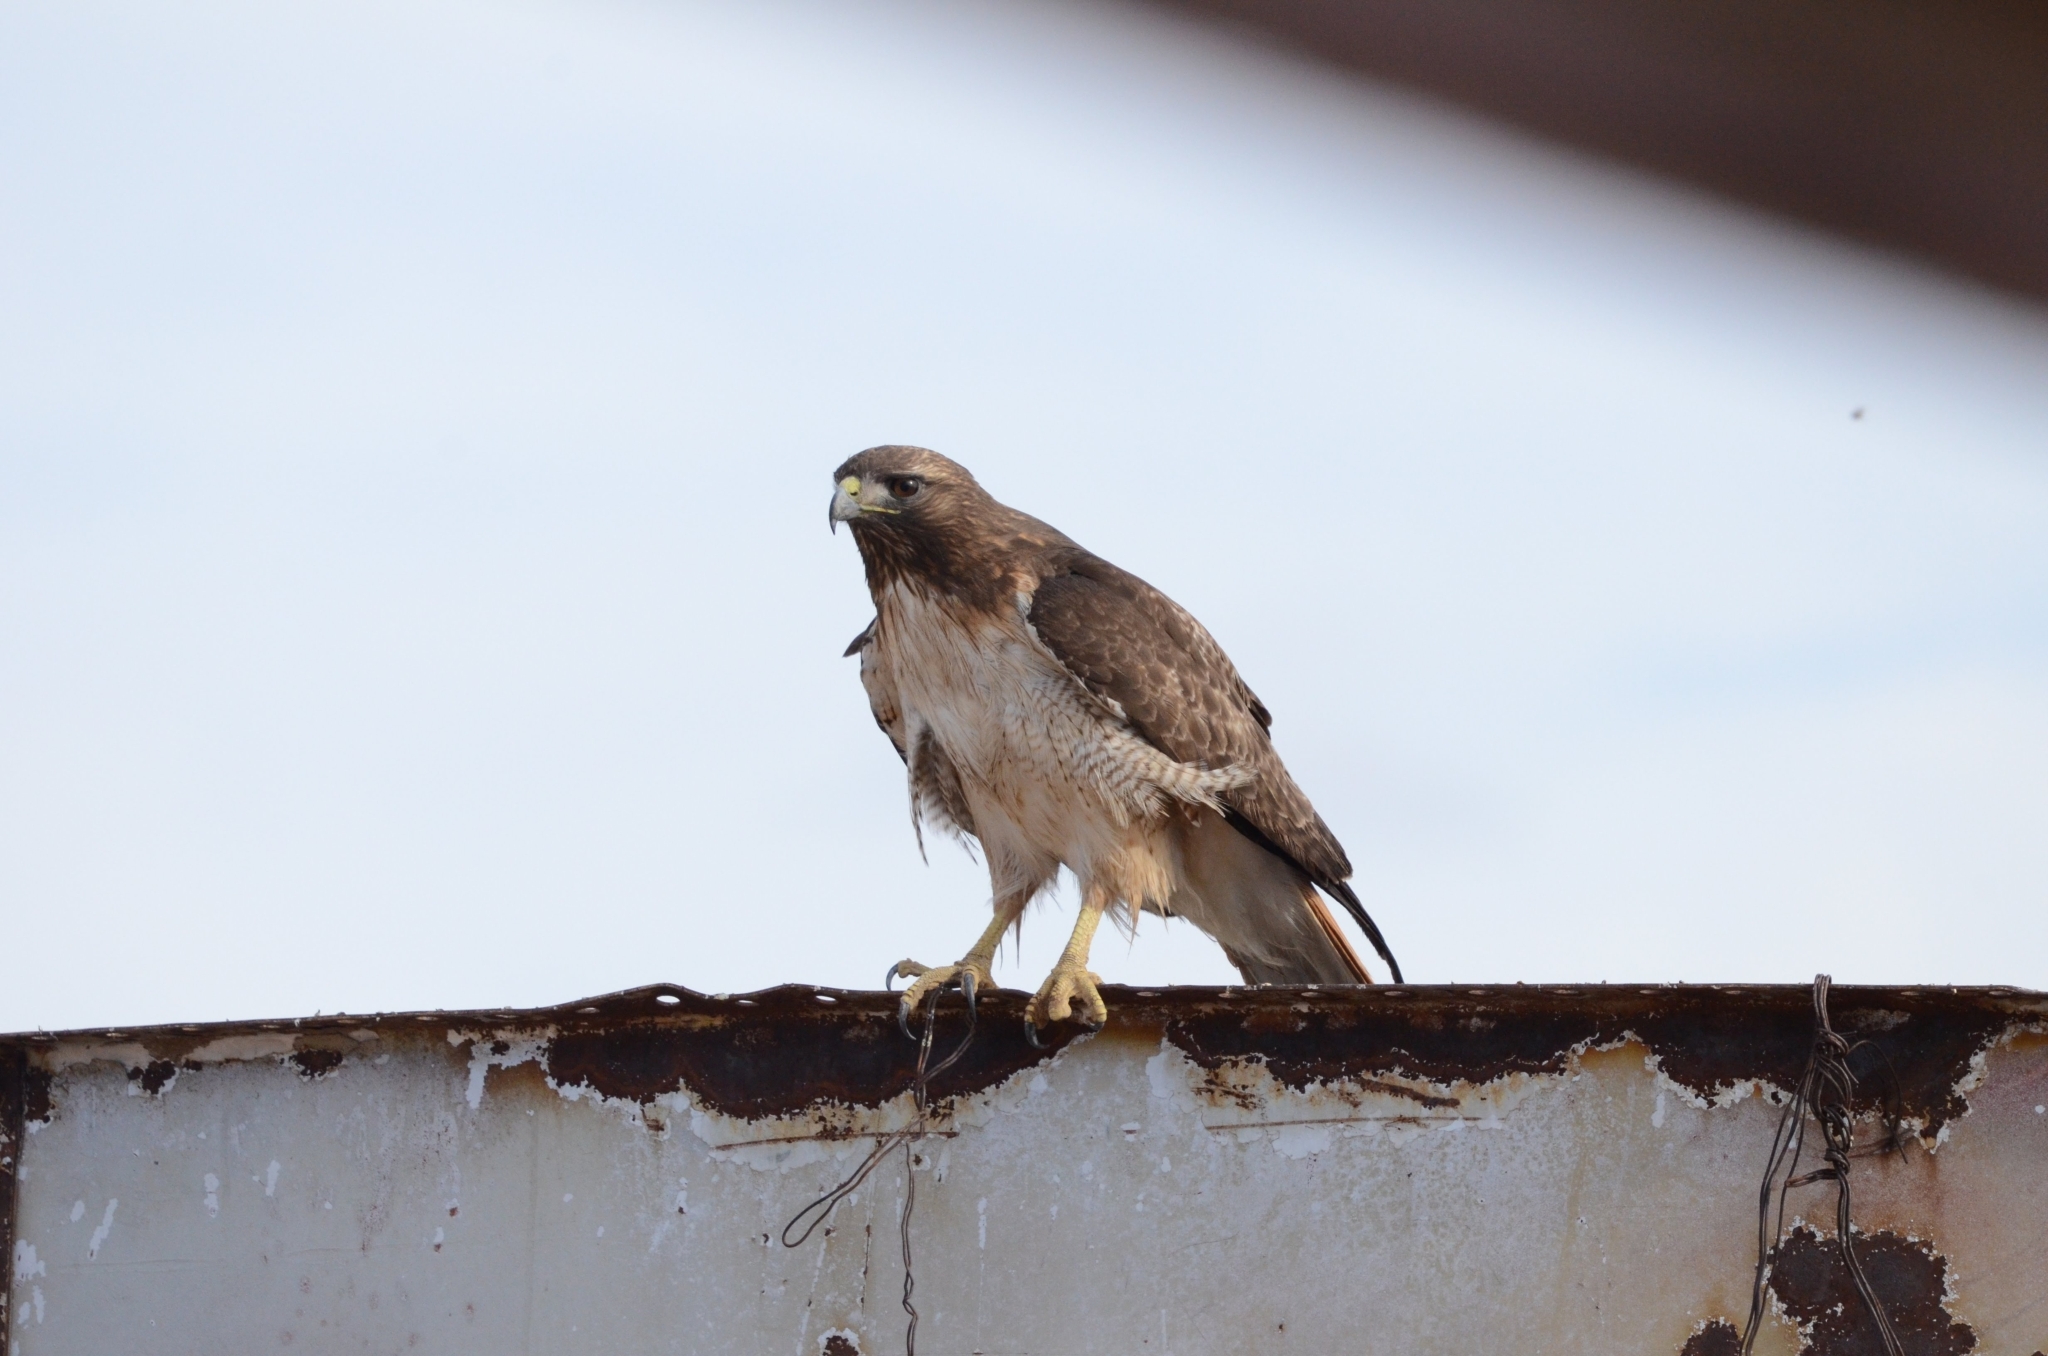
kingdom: Animalia
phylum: Chordata
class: Aves
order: Accipitriformes
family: Accipitridae
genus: Buteo
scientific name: Buteo jamaicensis
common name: Red-tailed hawk
